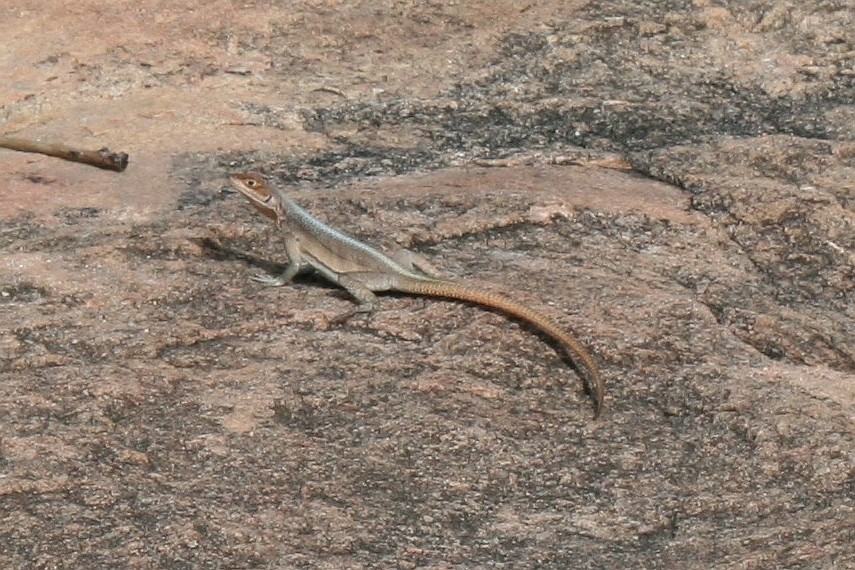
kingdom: Animalia
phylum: Chordata
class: Squamata
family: Opluridae
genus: Oplurus
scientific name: Oplurus grandidieri
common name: Grandidier's madagascar swift
